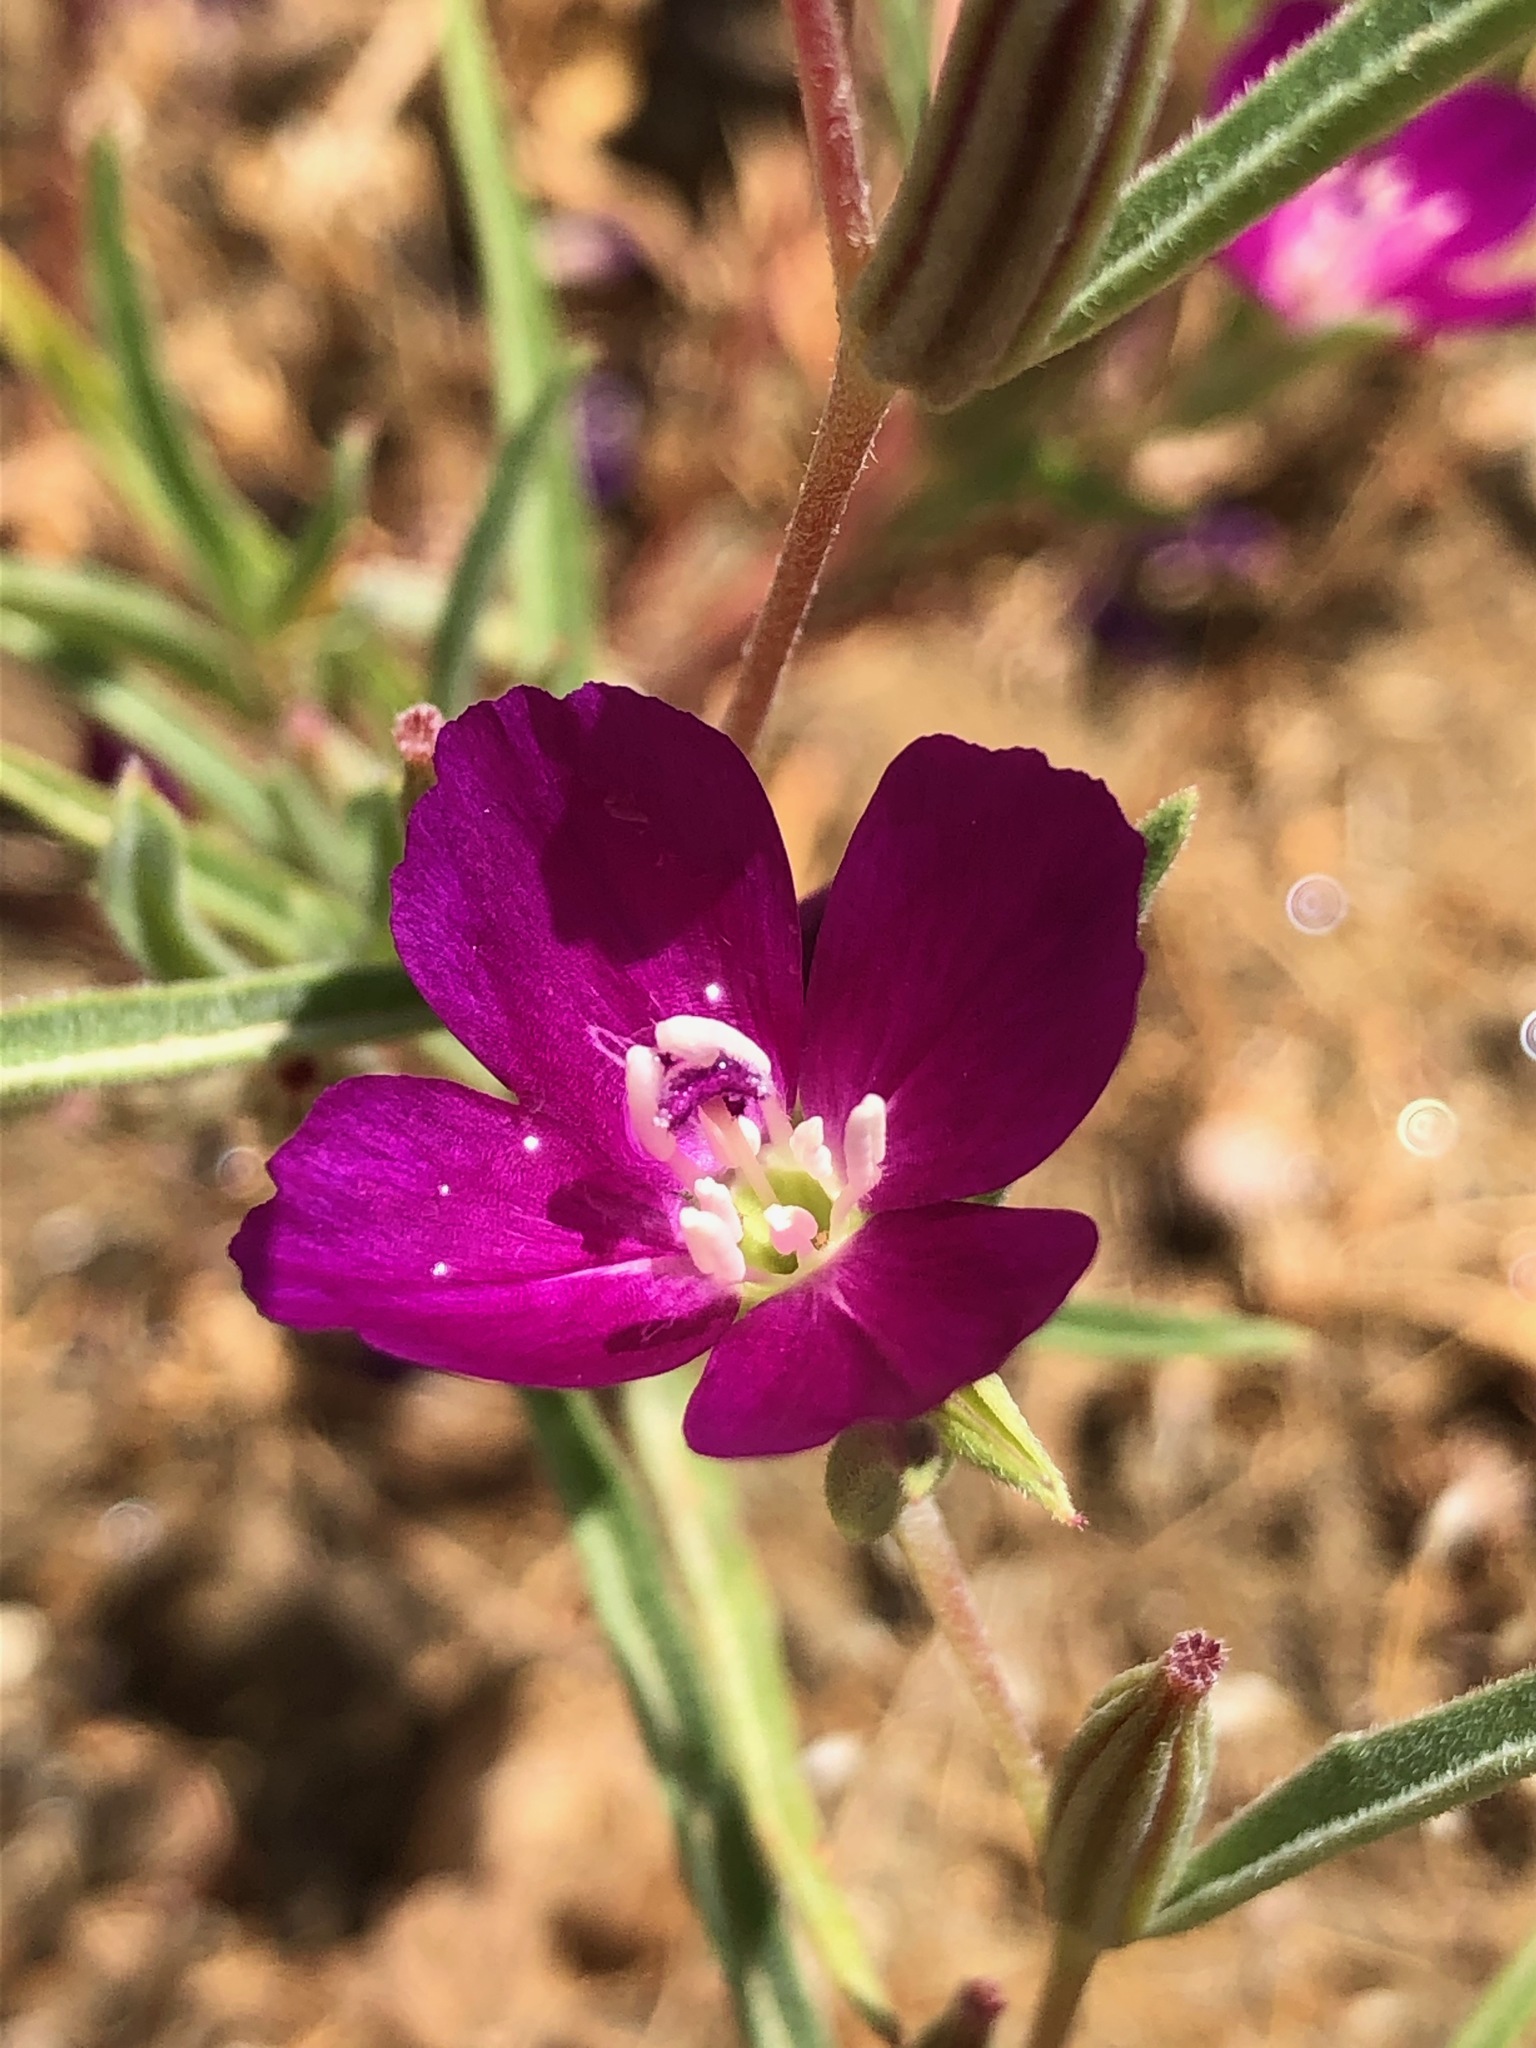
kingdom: Plantae
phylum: Tracheophyta
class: Magnoliopsida
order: Myrtales
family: Onagraceae
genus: Clarkia
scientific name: Clarkia purpurea
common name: Purple clarkia
